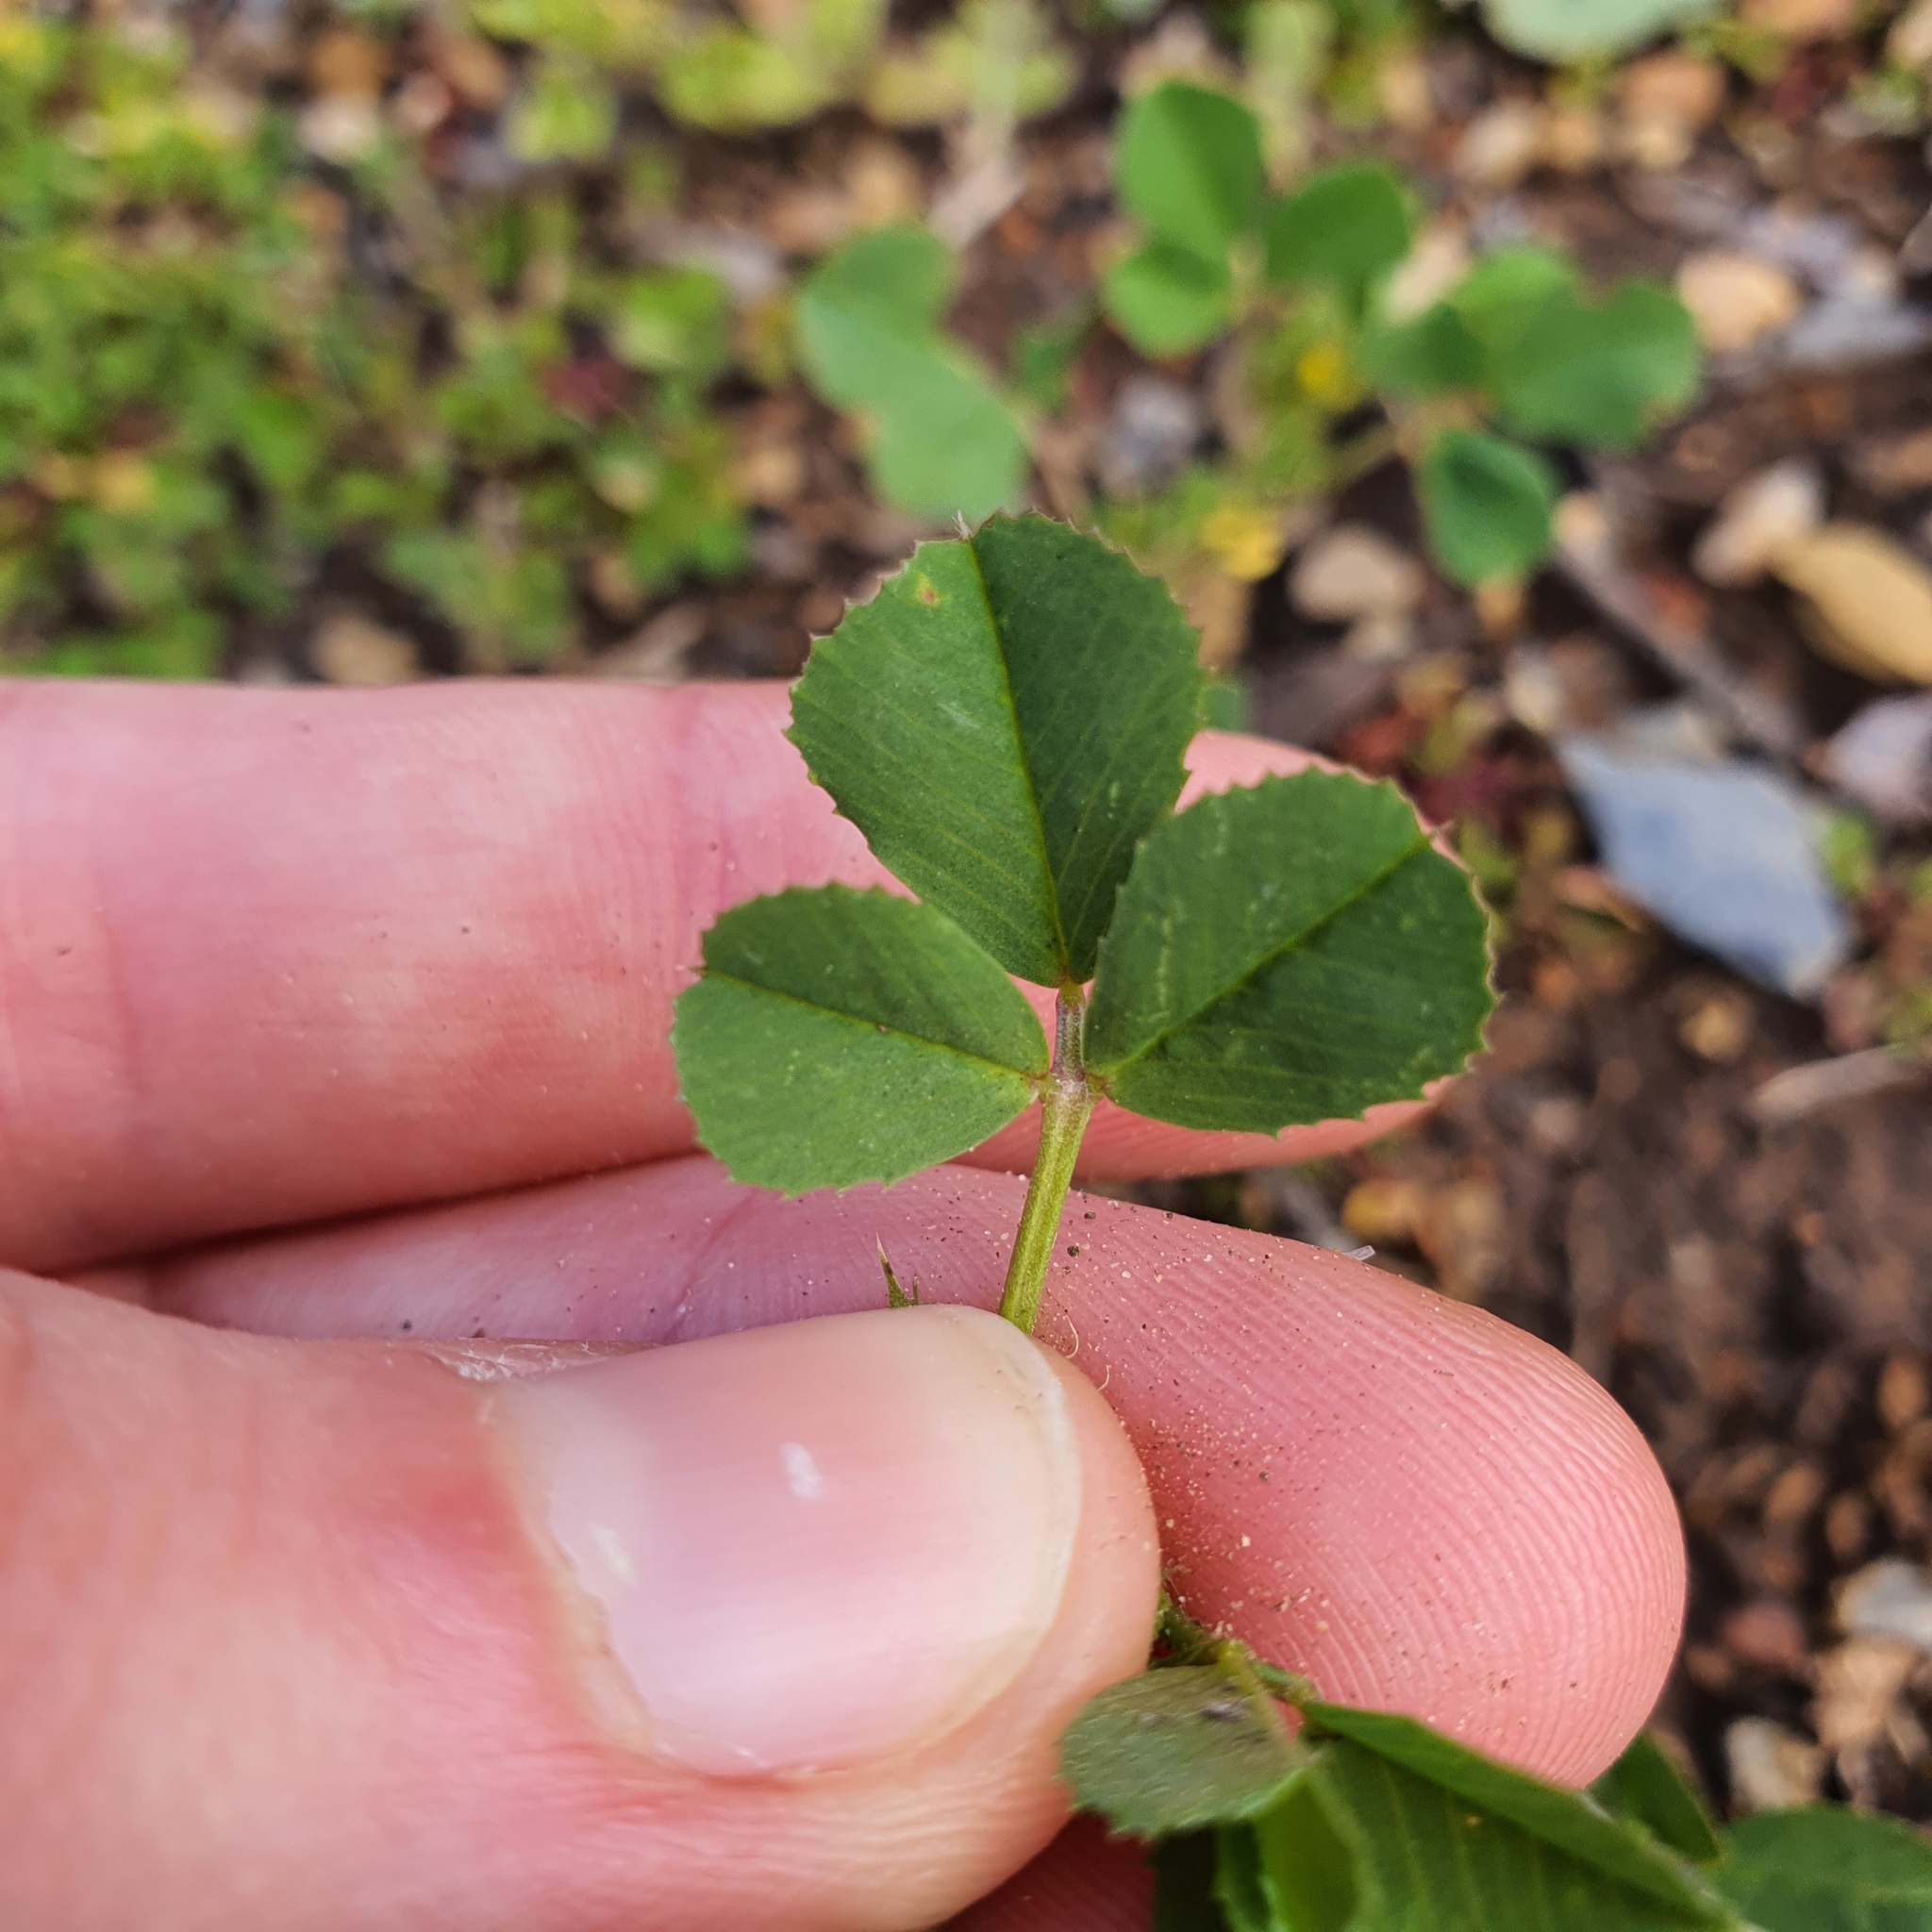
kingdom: Plantae
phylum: Tracheophyta
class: Magnoliopsida
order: Fabales
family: Fabaceae
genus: Medicago
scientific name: Medicago polymorpha
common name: Burclover
